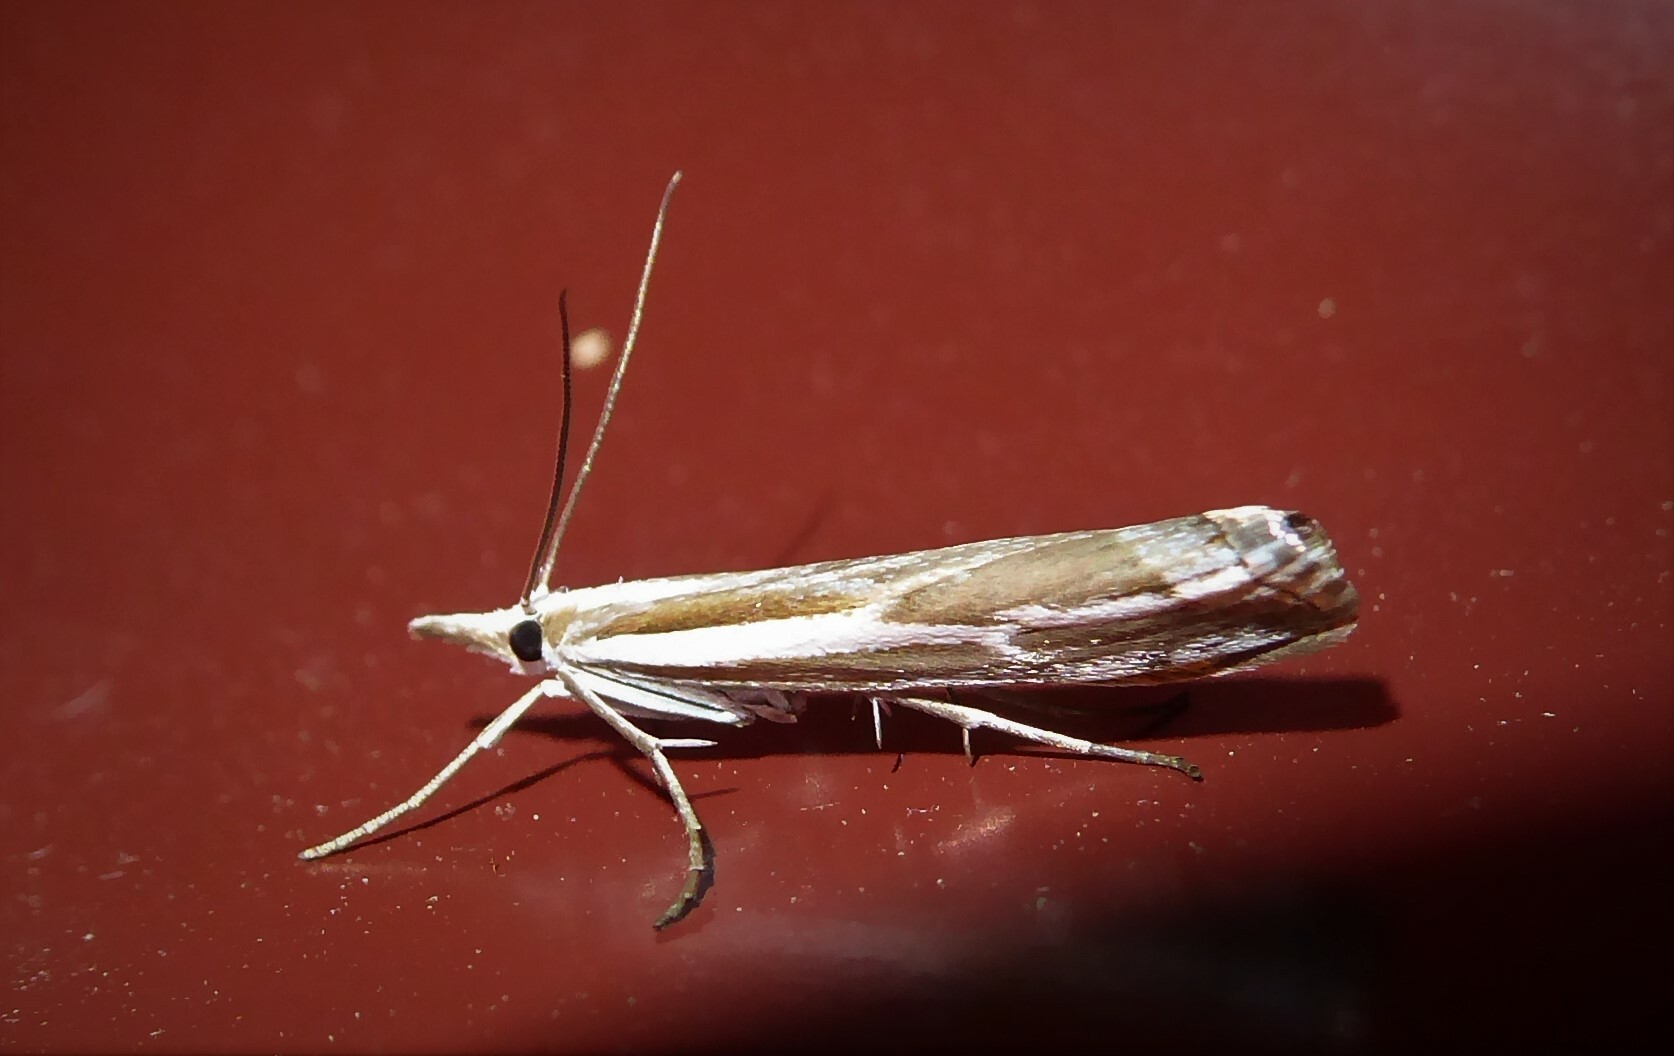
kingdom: Animalia
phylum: Arthropoda
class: Insecta
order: Lepidoptera
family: Crambidae
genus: Orocrambus
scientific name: Orocrambus vittellus
